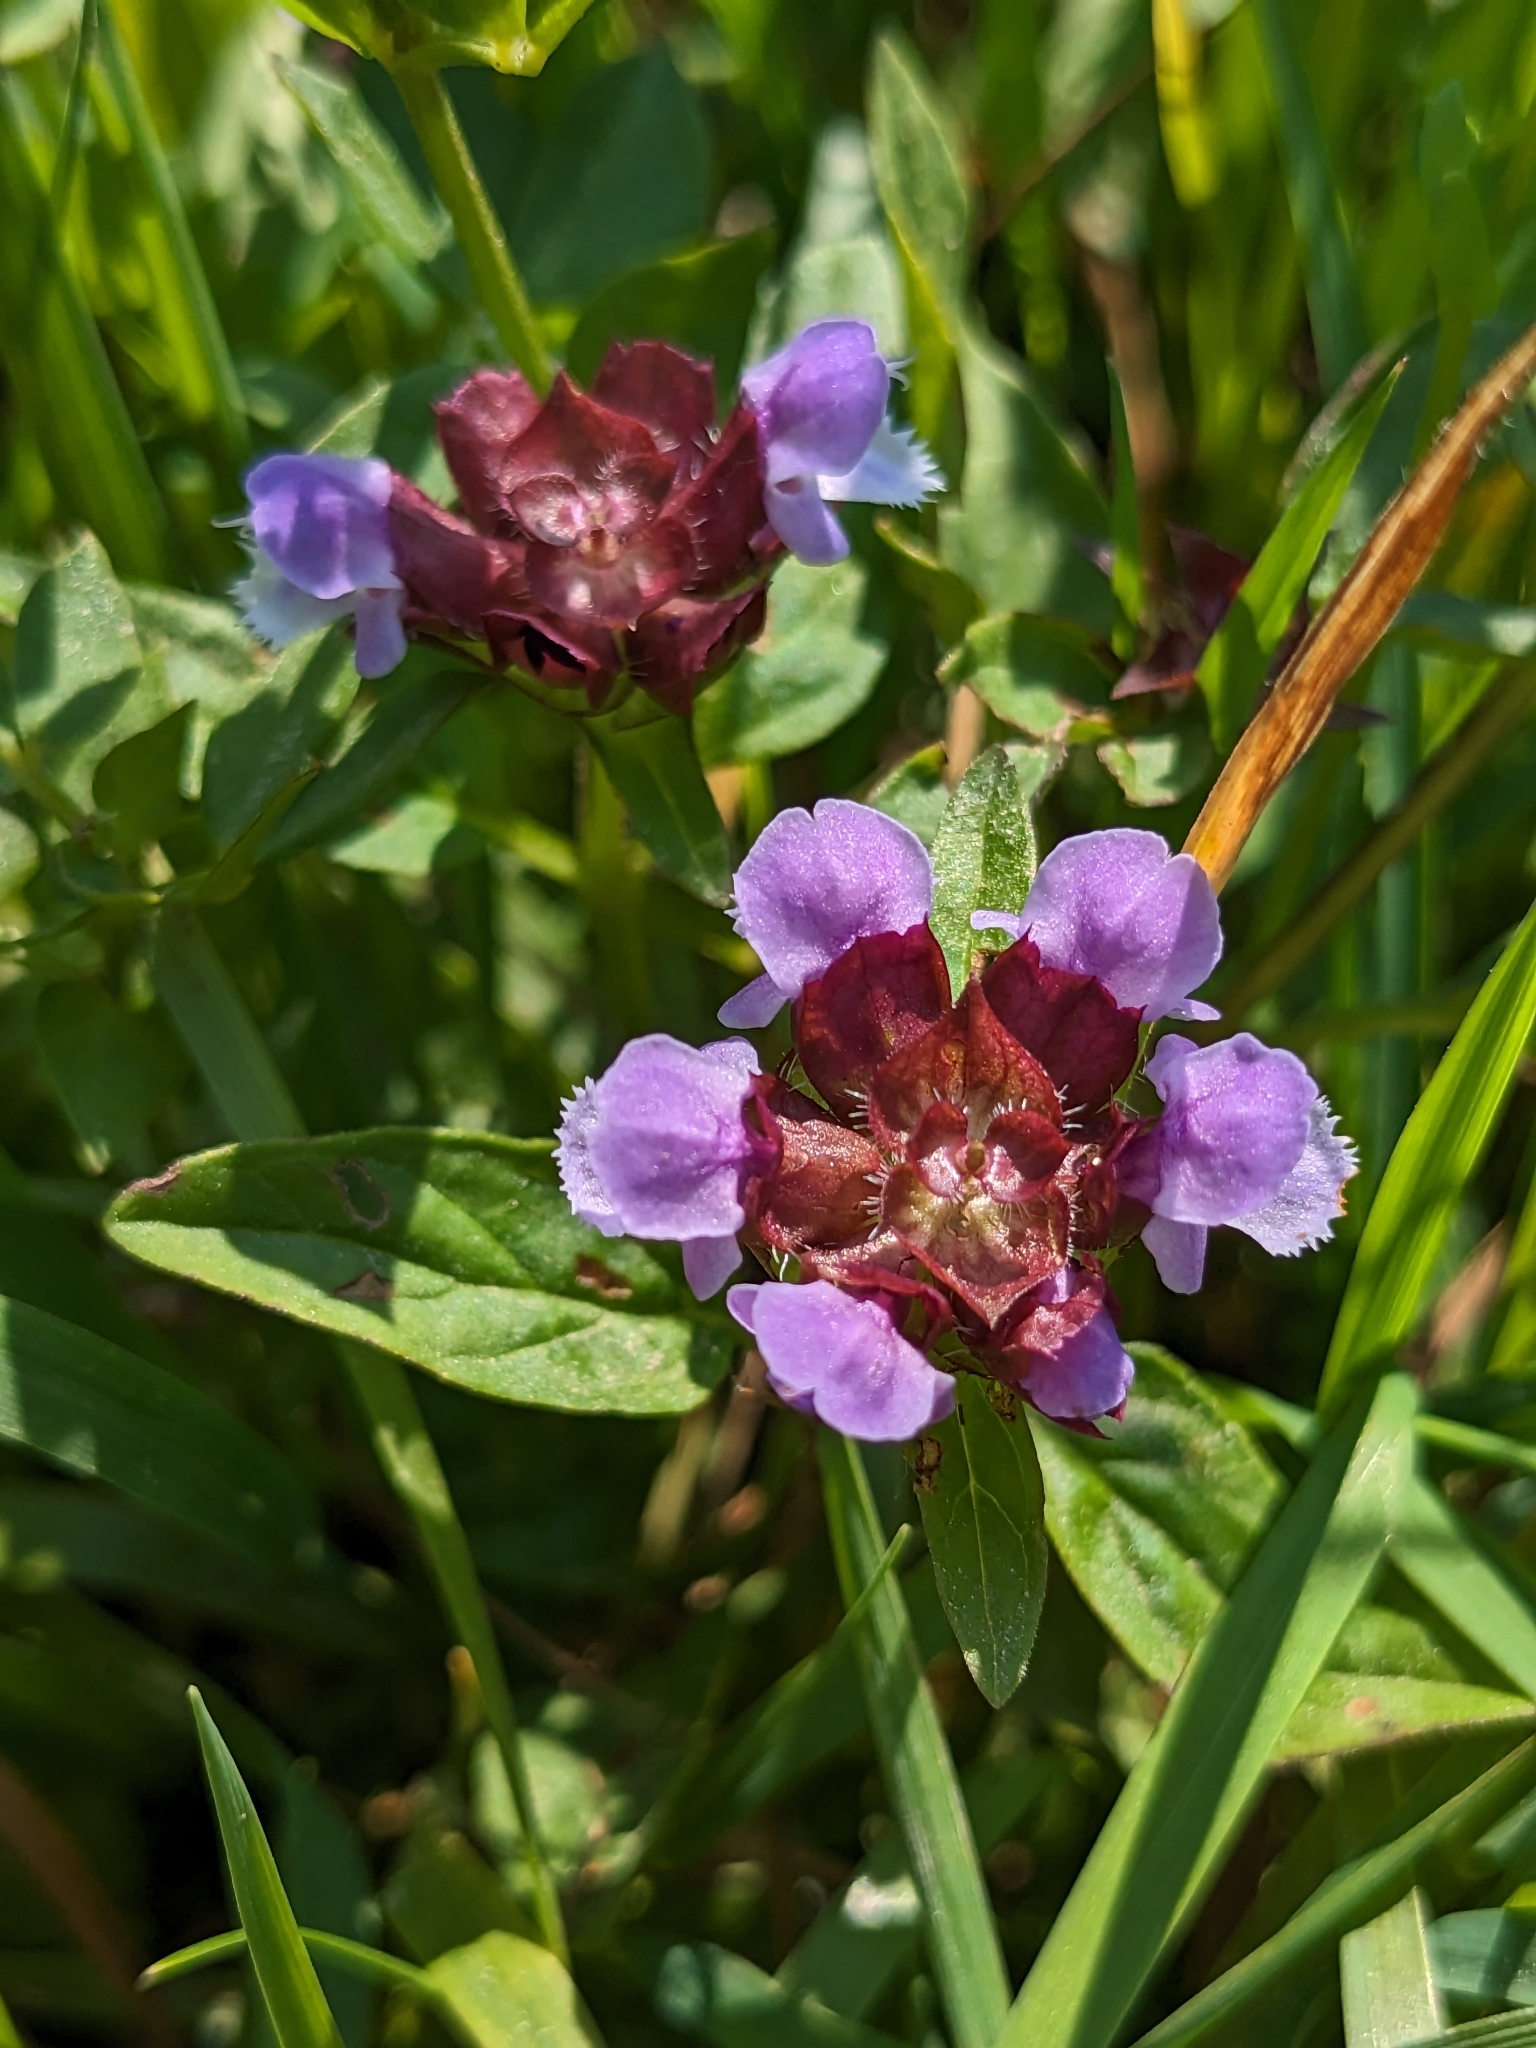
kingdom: Plantae
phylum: Tracheophyta
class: Magnoliopsida
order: Lamiales
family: Lamiaceae
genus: Prunella
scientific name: Prunella vulgaris
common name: Heal-all
